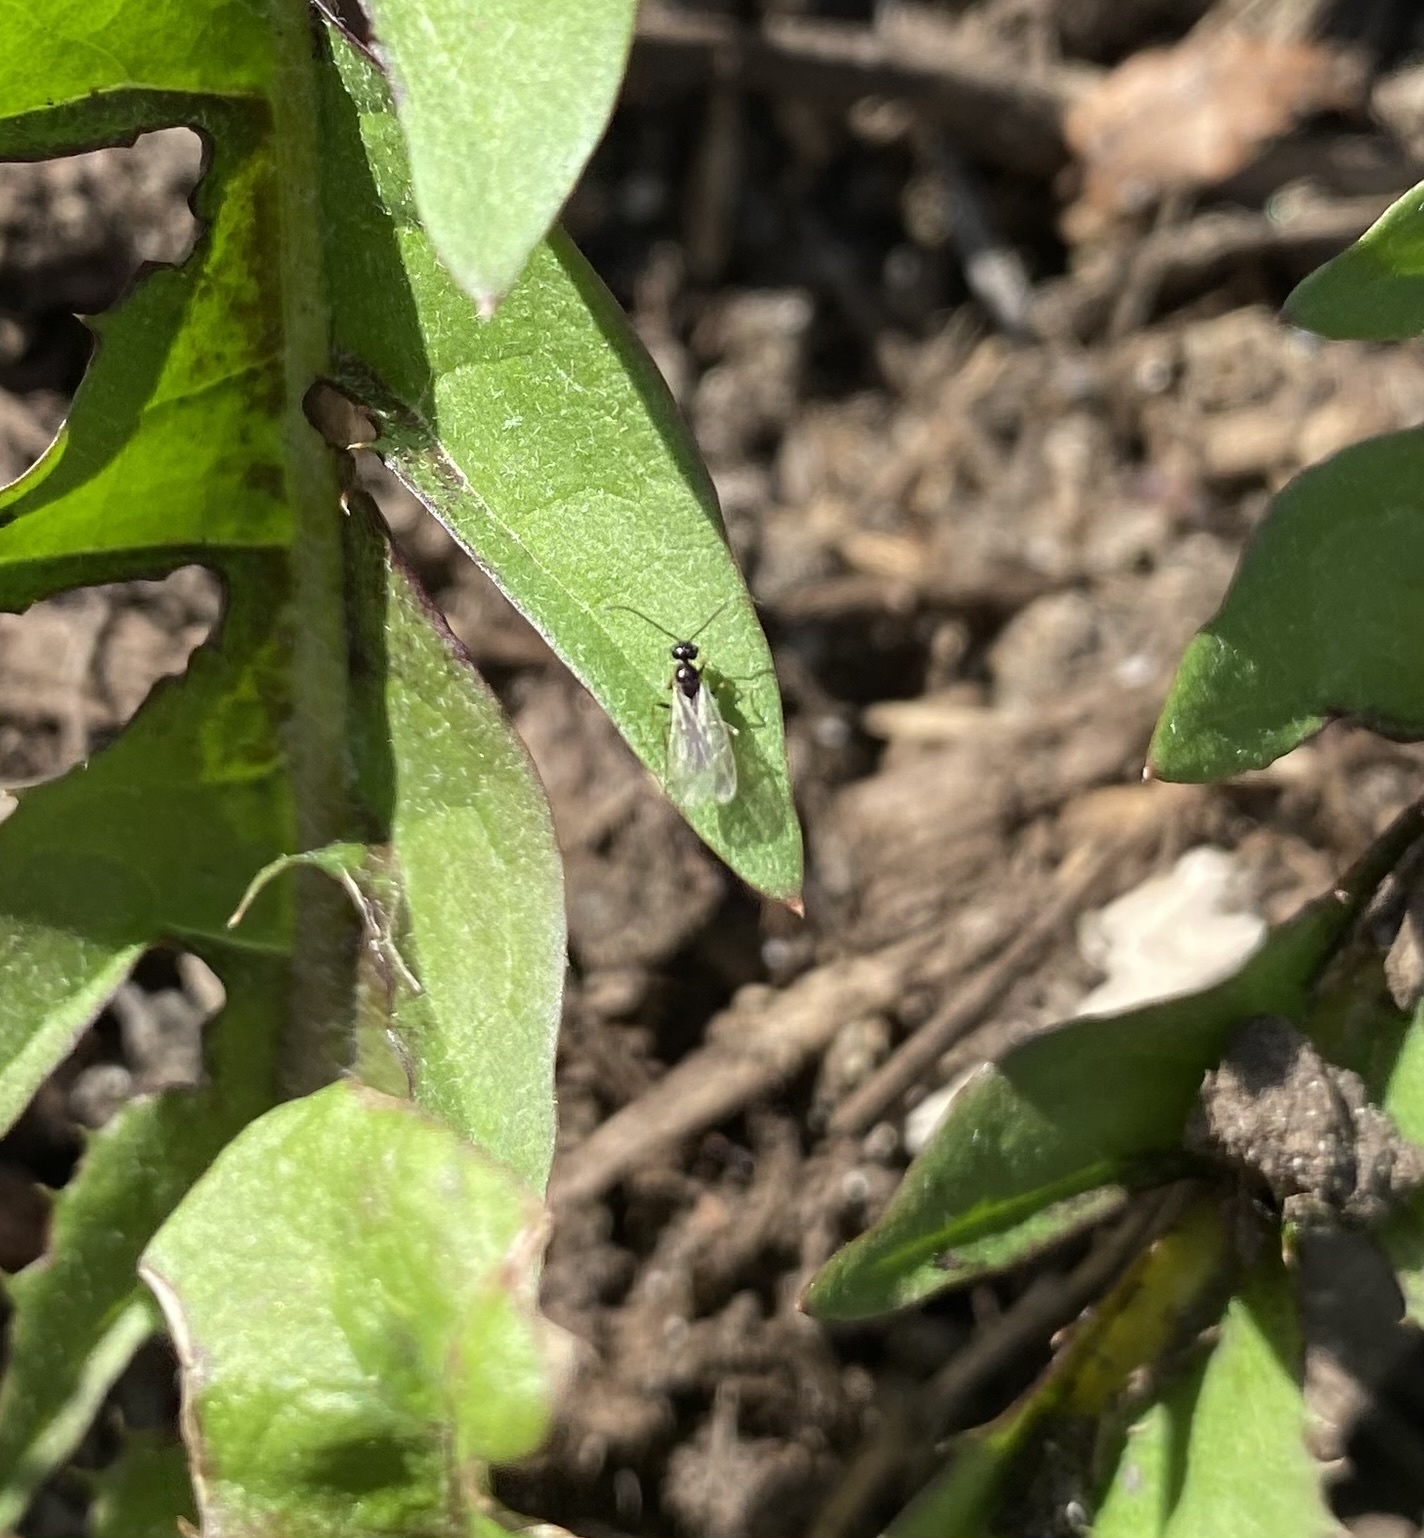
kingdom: Animalia
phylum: Arthropoda
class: Insecta
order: Hymenoptera
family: Formicidae
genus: Prenolepis
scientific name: Prenolepis imparis
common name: Small honey ant
